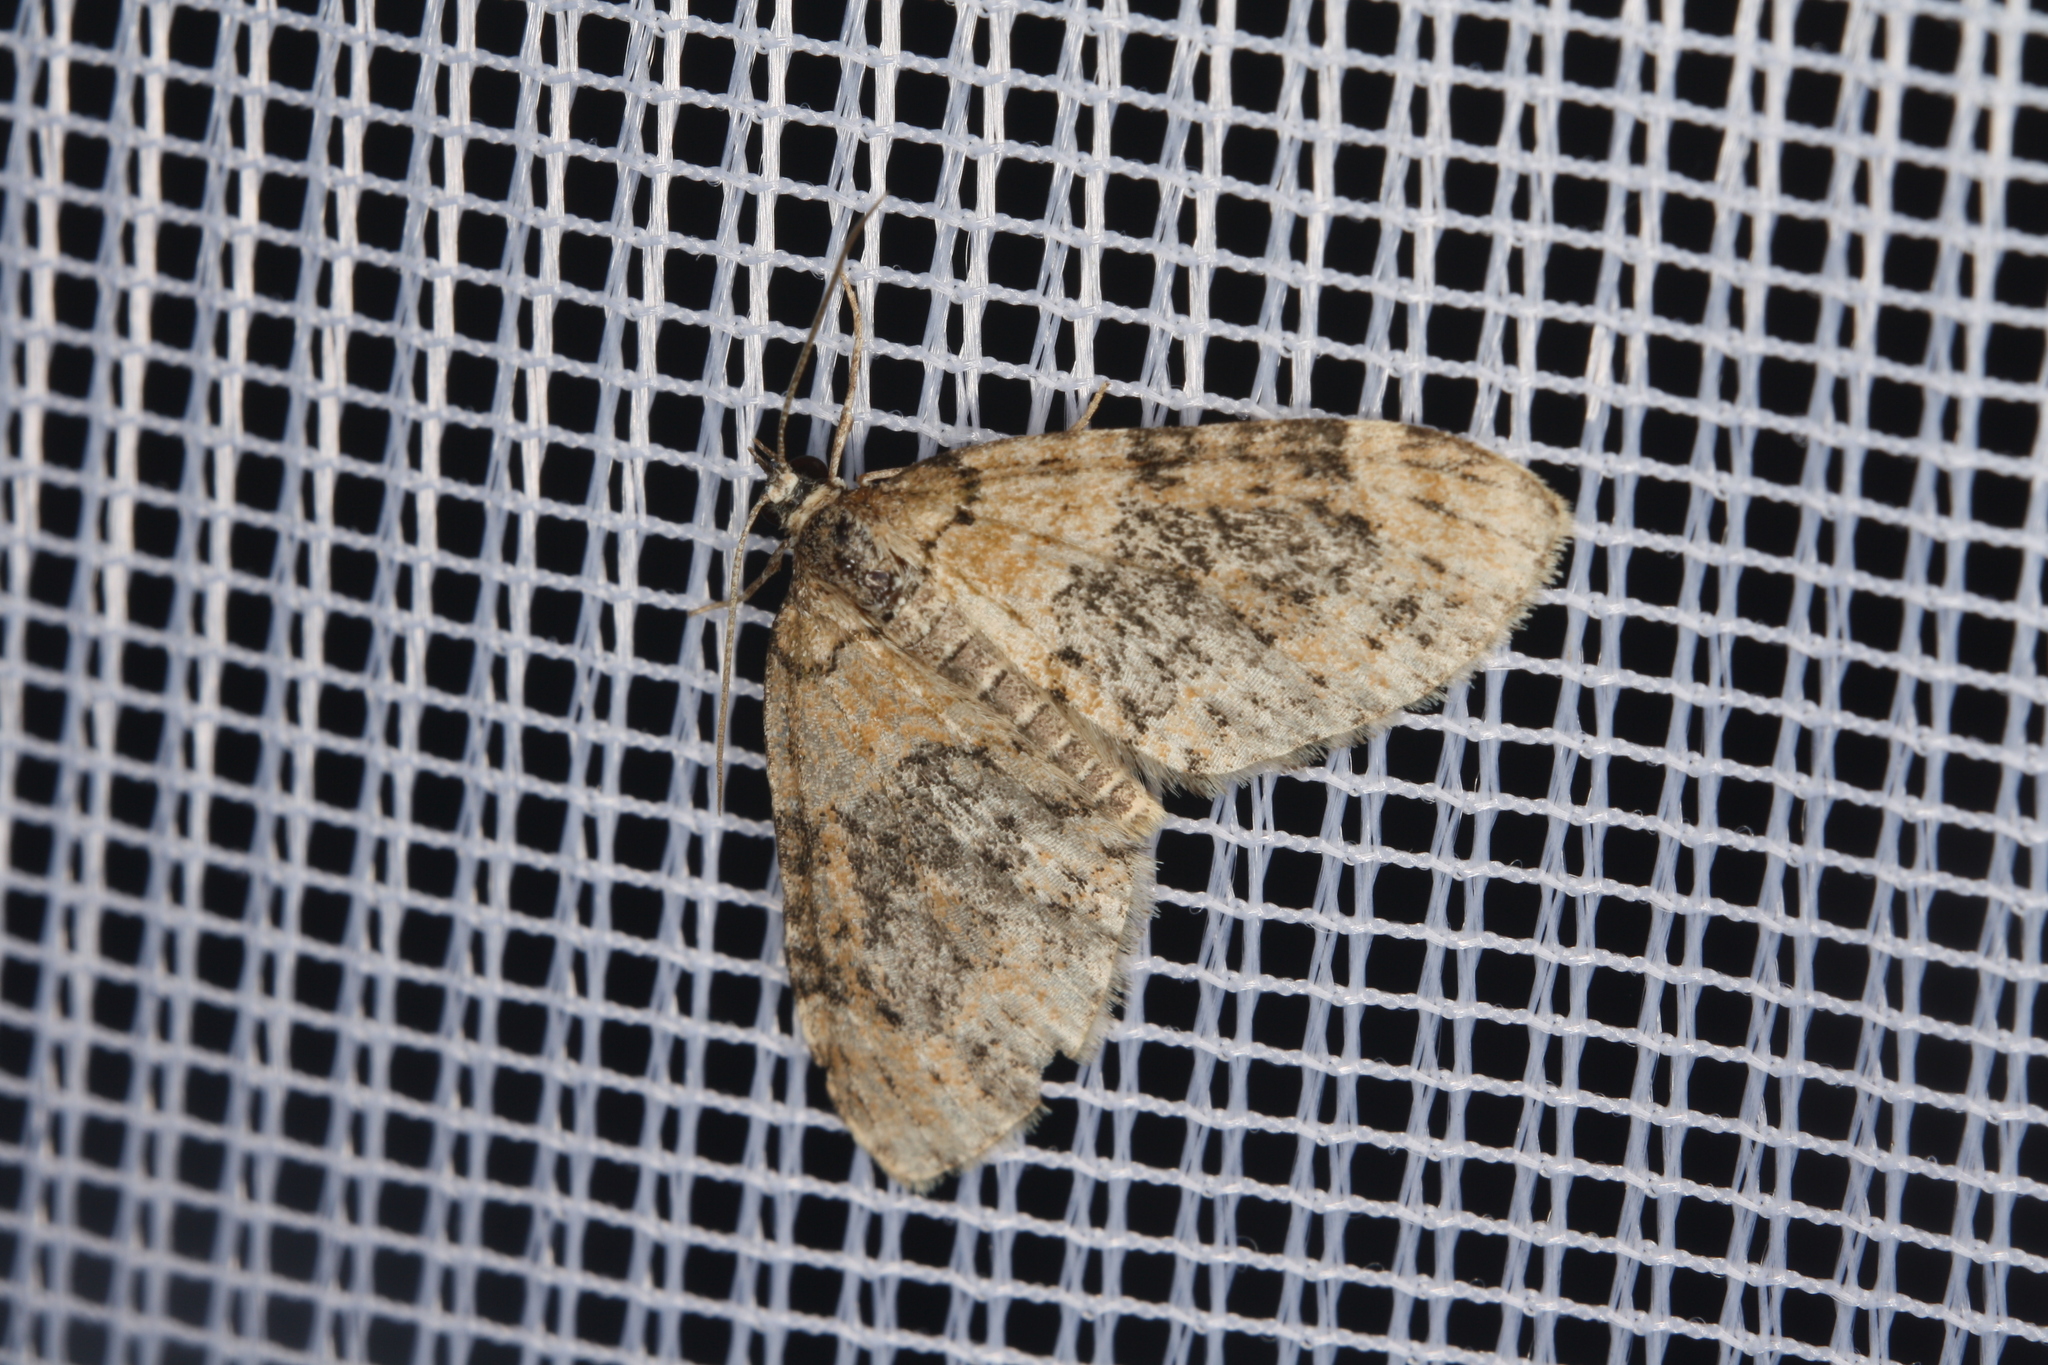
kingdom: Animalia
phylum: Arthropoda
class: Insecta
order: Lepidoptera
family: Geometridae
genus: Acasis
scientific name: Acasis viretata
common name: Yellow-barred brindle
